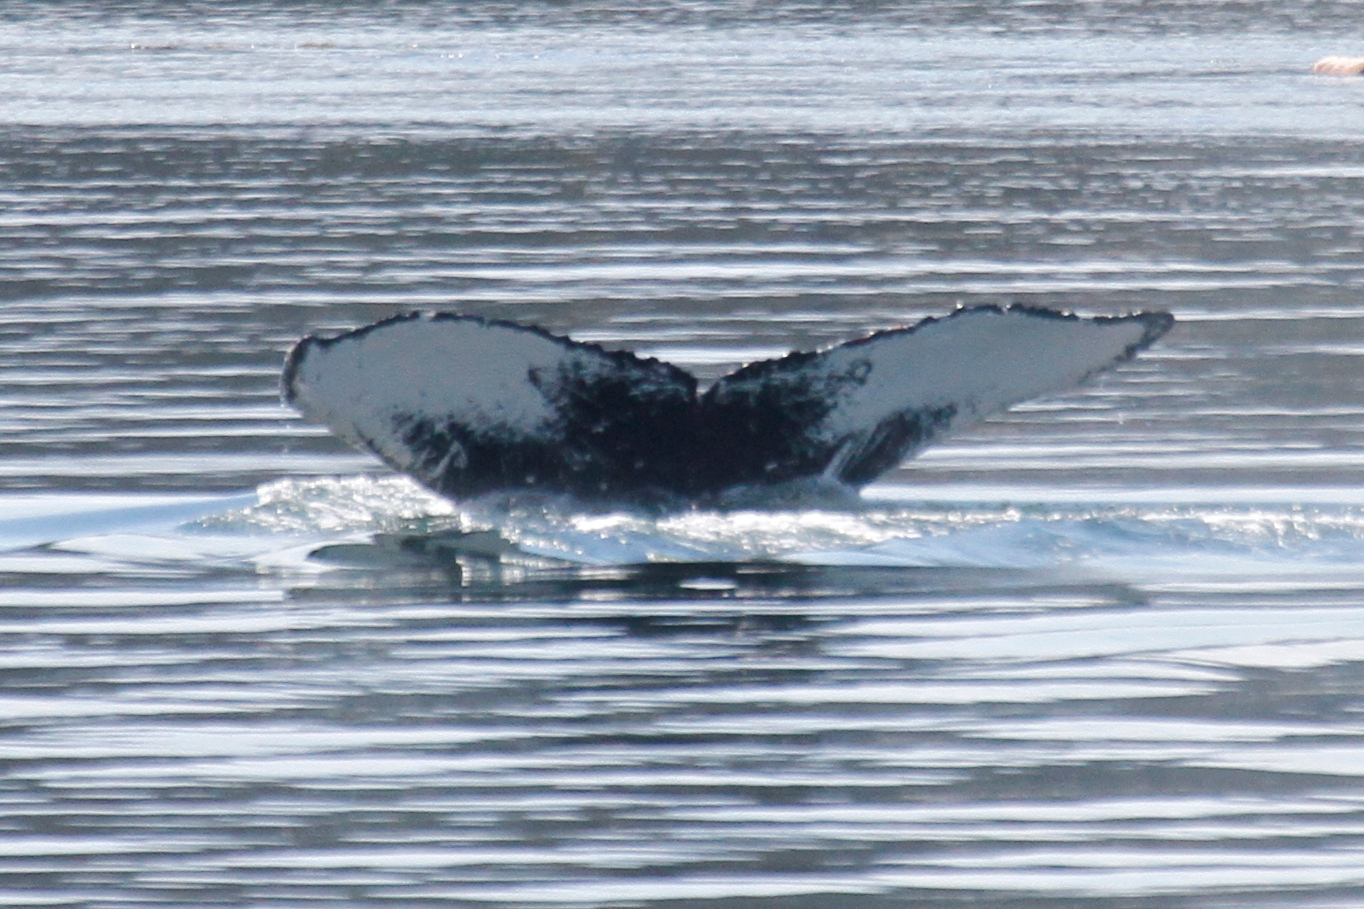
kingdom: Animalia
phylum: Chordata
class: Mammalia
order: Cetacea
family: Balaenopteridae
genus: Megaptera
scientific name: Megaptera novaeangliae
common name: Humpback whale
